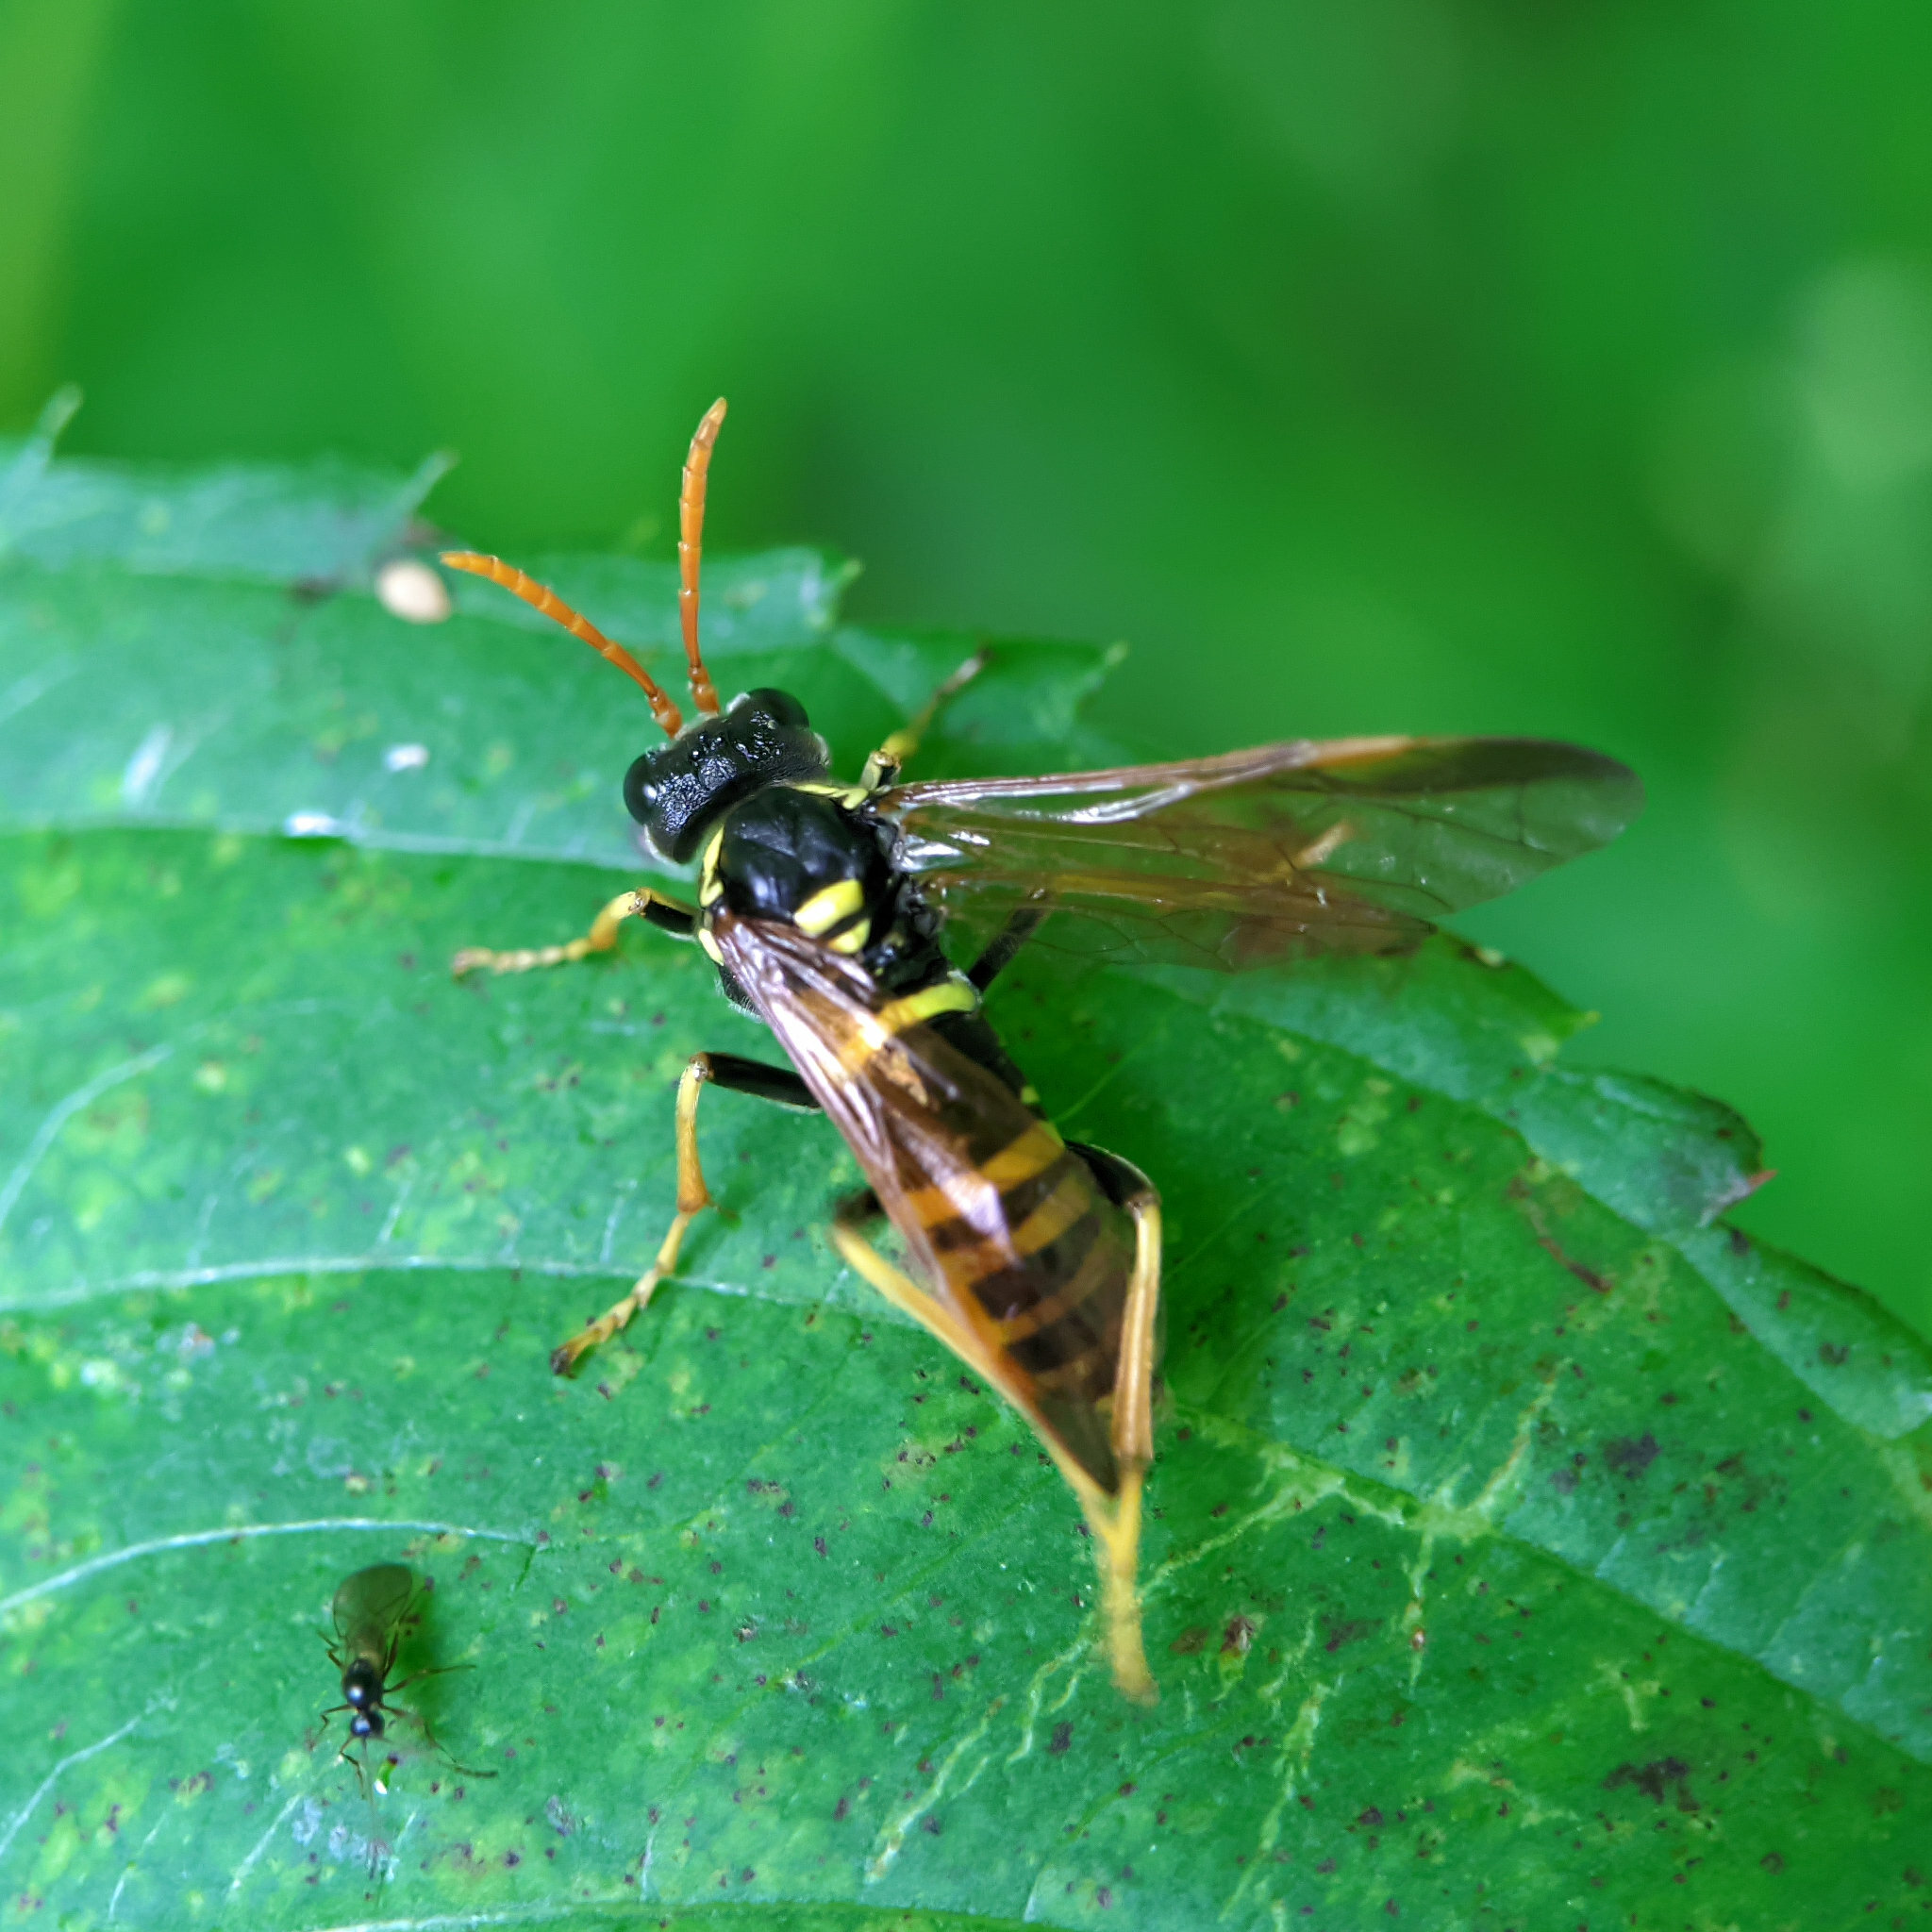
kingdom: Animalia
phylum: Arthropoda
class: Insecta
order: Hymenoptera
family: Tenthredinidae
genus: Tenthredo
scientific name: Tenthredo scrophulariae
